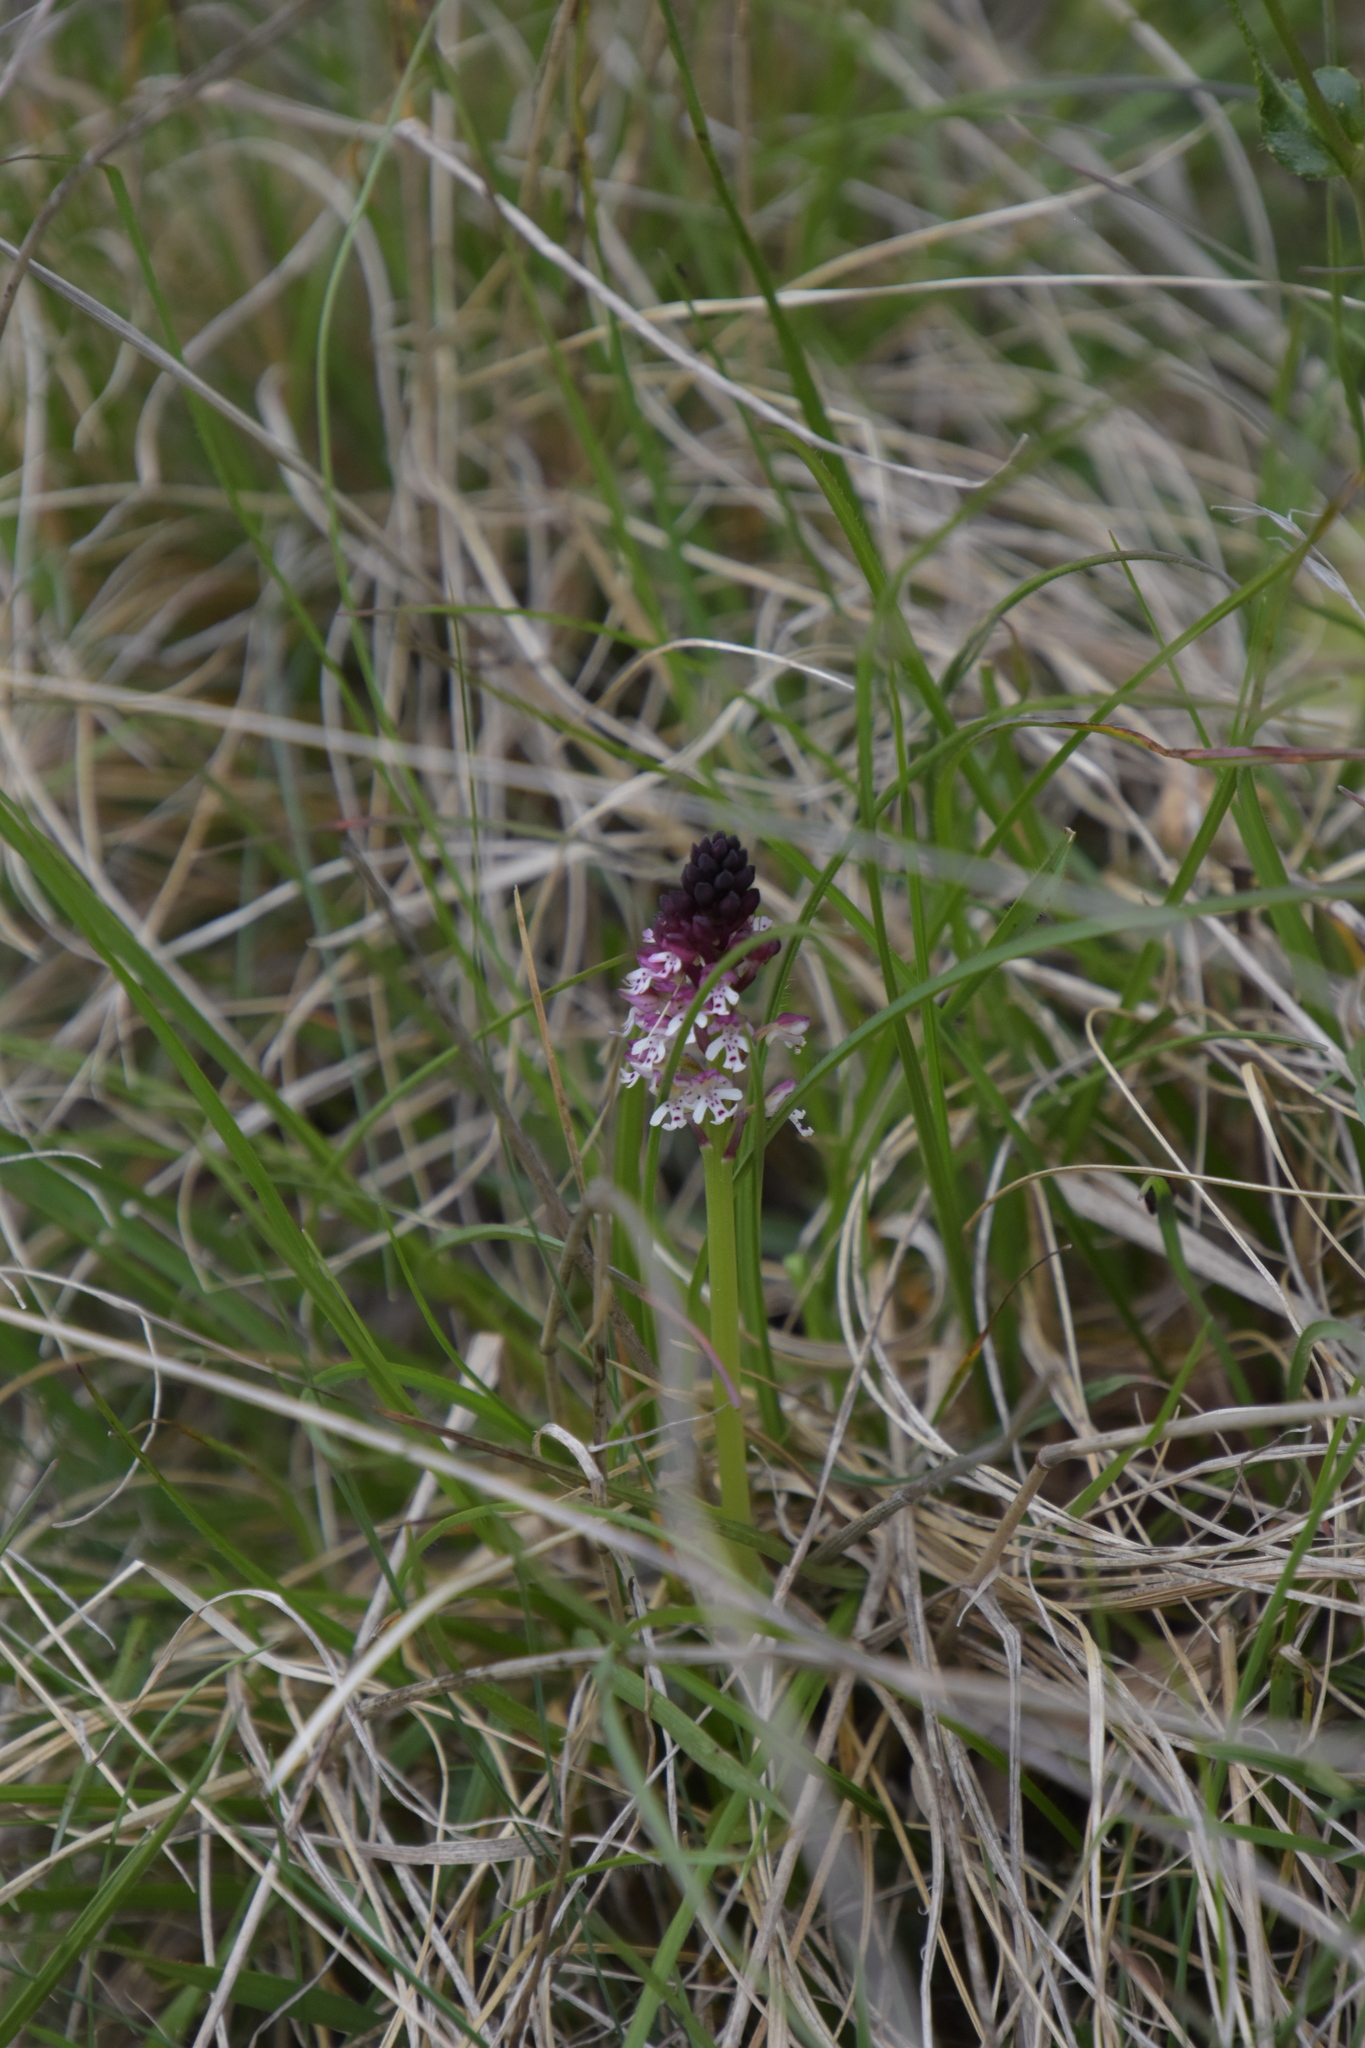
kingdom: Plantae
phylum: Tracheophyta
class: Liliopsida
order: Asparagales
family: Orchidaceae
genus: Neotinea
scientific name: Neotinea ustulata
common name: Burnt orchid
